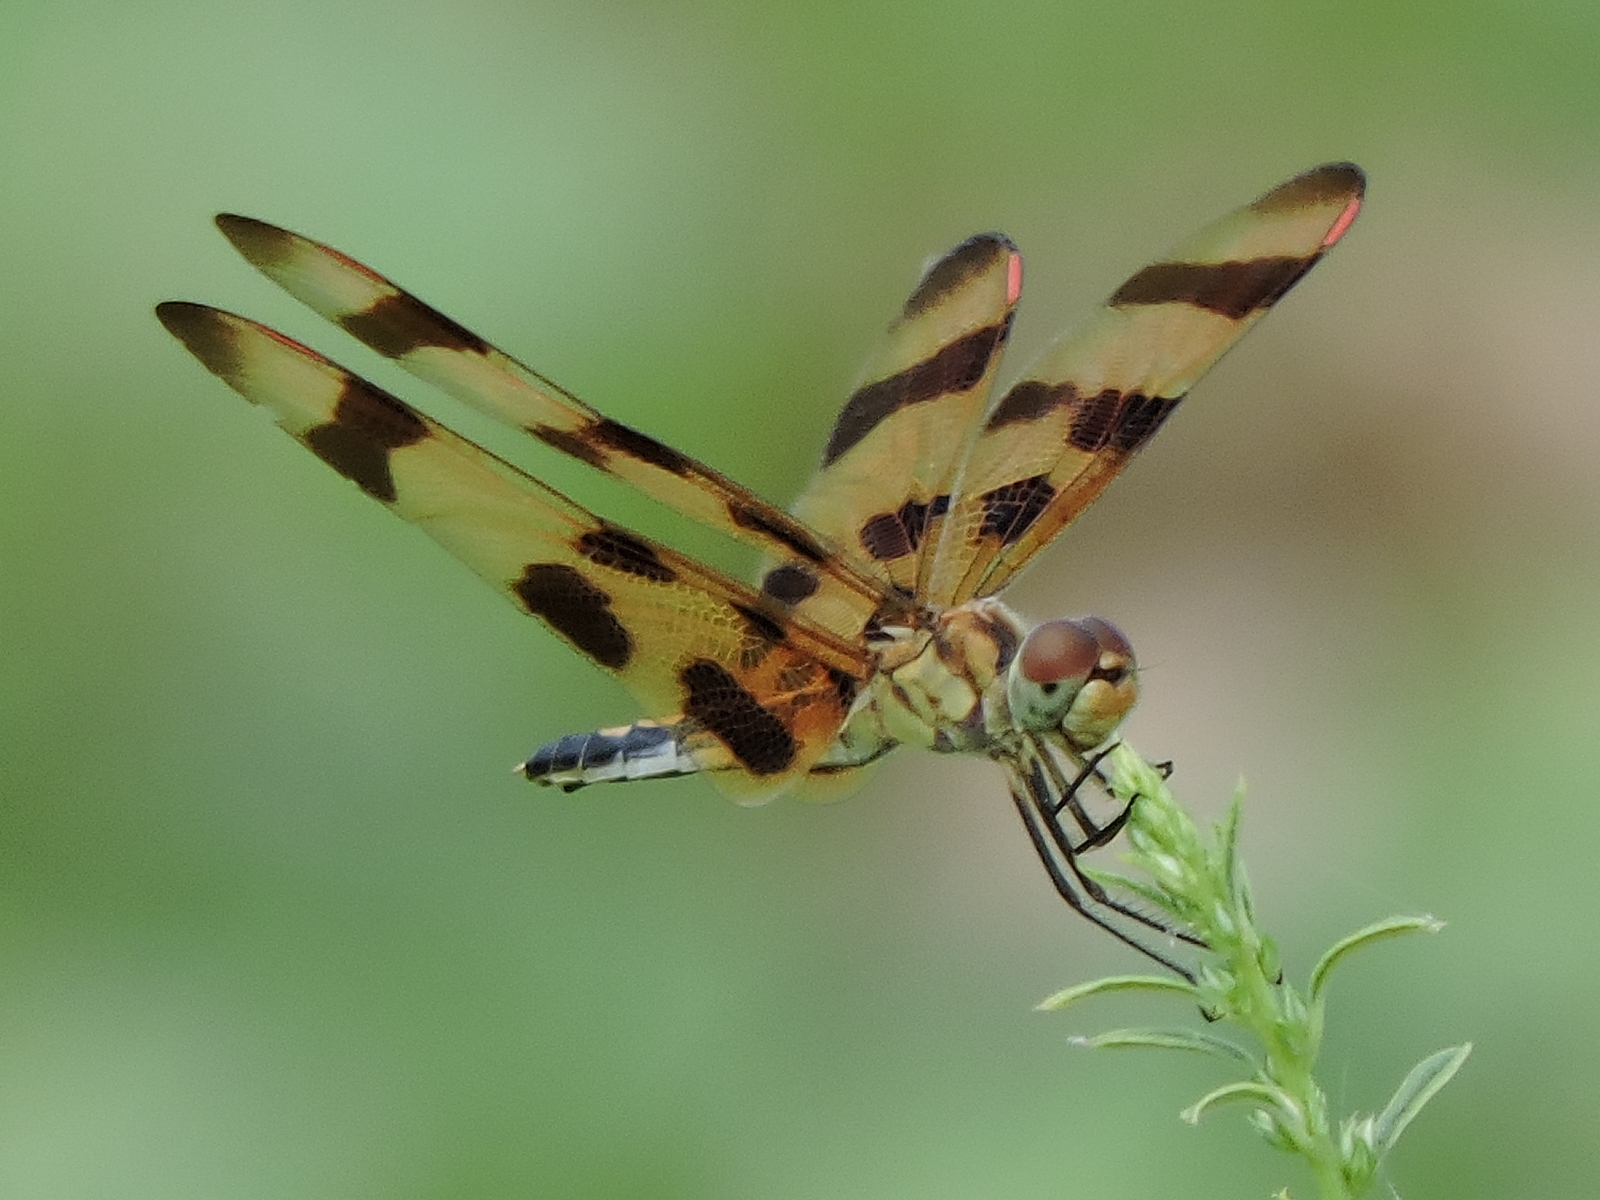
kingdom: Animalia
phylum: Arthropoda
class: Insecta
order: Odonata
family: Libellulidae
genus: Celithemis
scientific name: Celithemis eponina
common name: Halloween pennant
